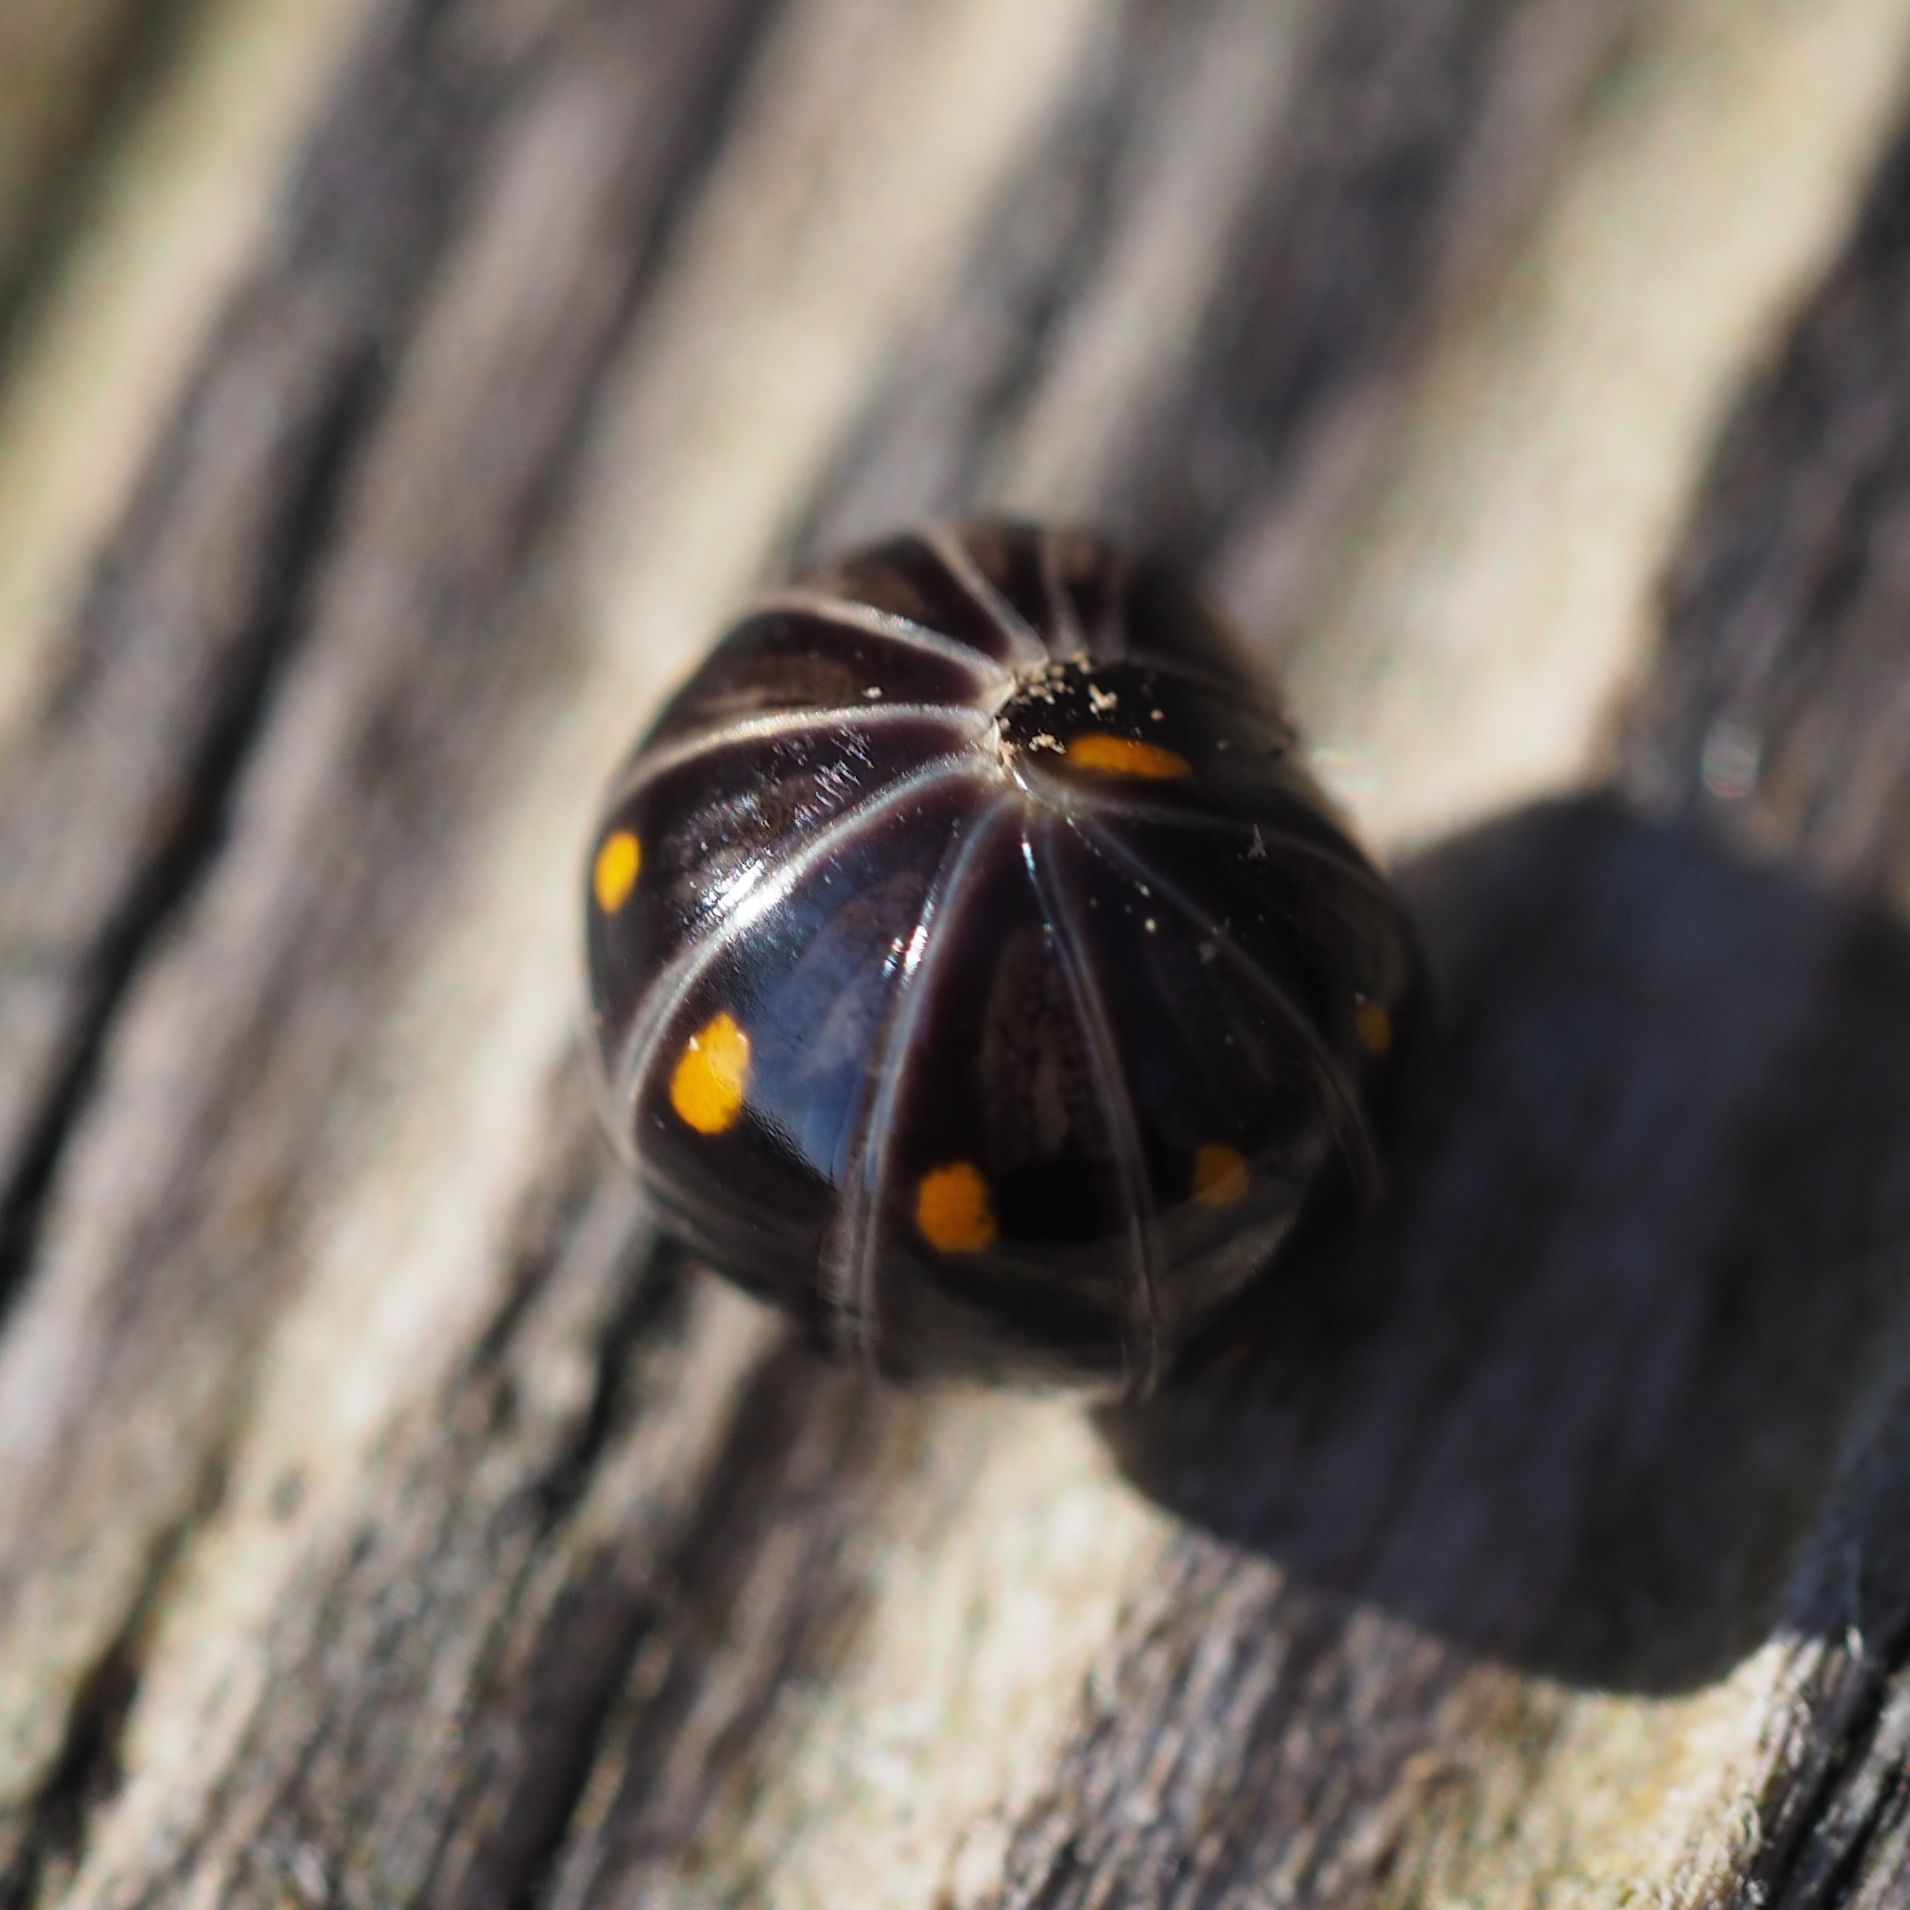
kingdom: Animalia
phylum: Arthropoda
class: Diplopoda
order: Glomerida
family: Glomeridae
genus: Glomeris
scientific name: Glomeris pustulata
